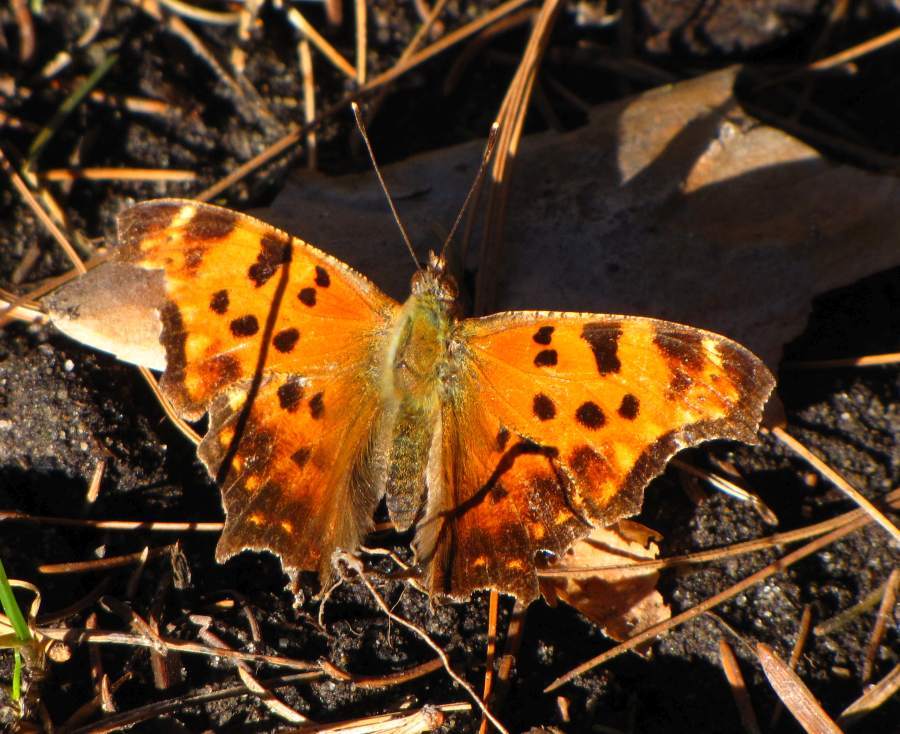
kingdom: Animalia
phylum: Arthropoda
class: Insecta
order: Lepidoptera
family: Nymphalidae
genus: Polygonia
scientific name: Polygonia comma
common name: Eastern comma
